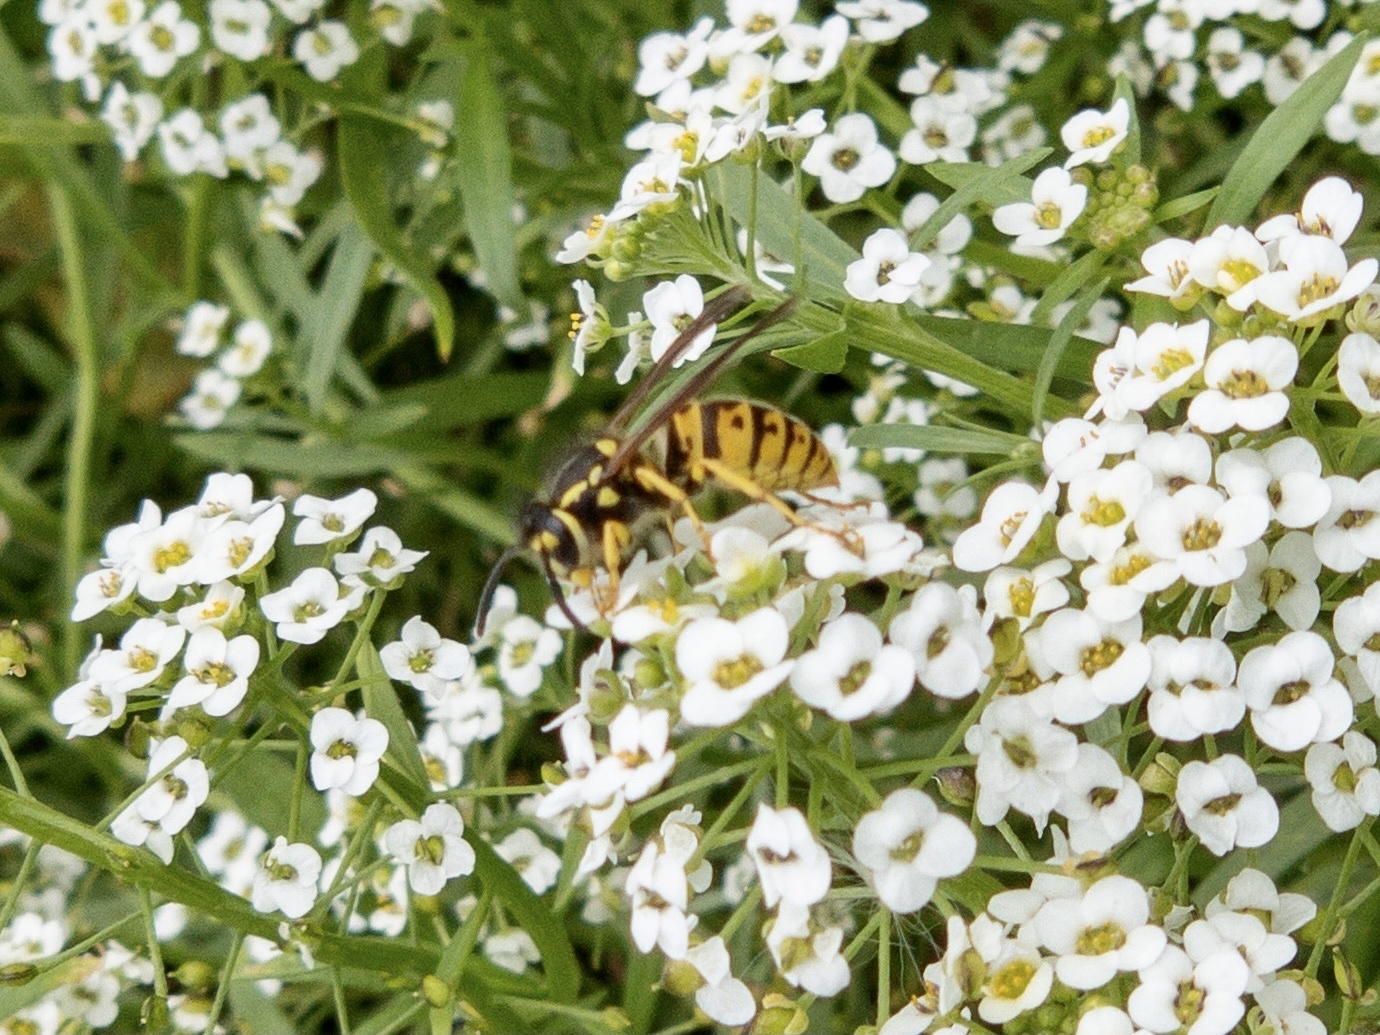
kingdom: Animalia
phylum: Arthropoda
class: Insecta
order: Hymenoptera
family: Vespidae
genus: Vespula
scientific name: Vespula germanica
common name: German wasp
